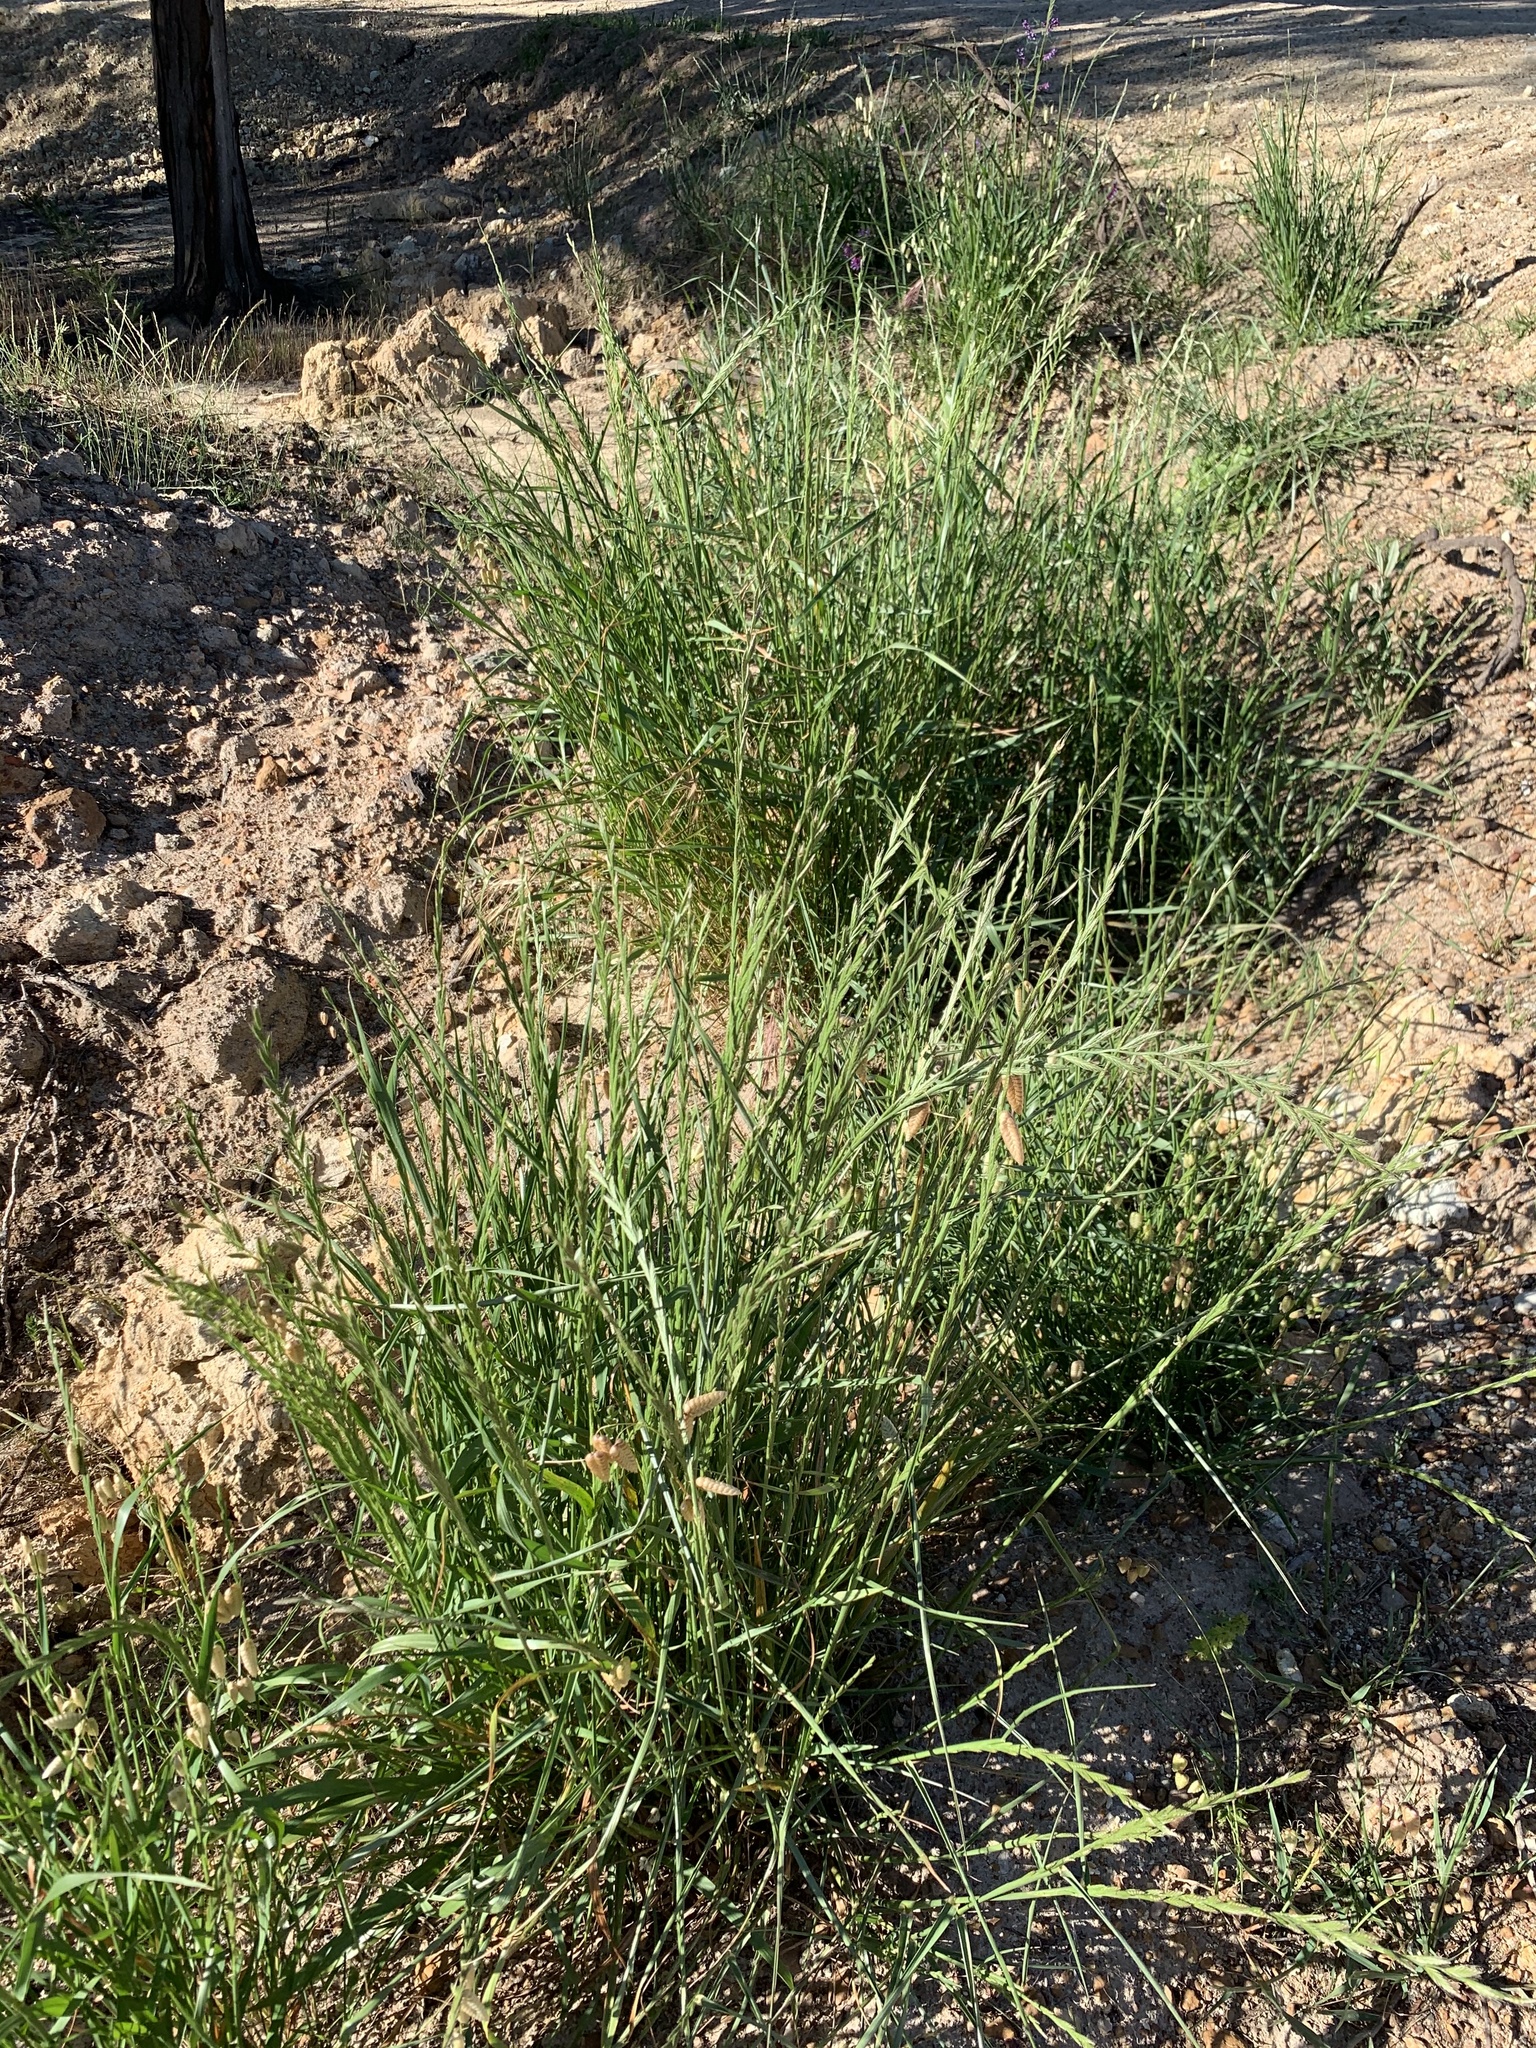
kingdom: Plantae
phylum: Tracheophyta
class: Liliopsida
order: Poales
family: Poaceae
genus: Lolium
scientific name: Lolium multiflorum
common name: Annual ryegrass
